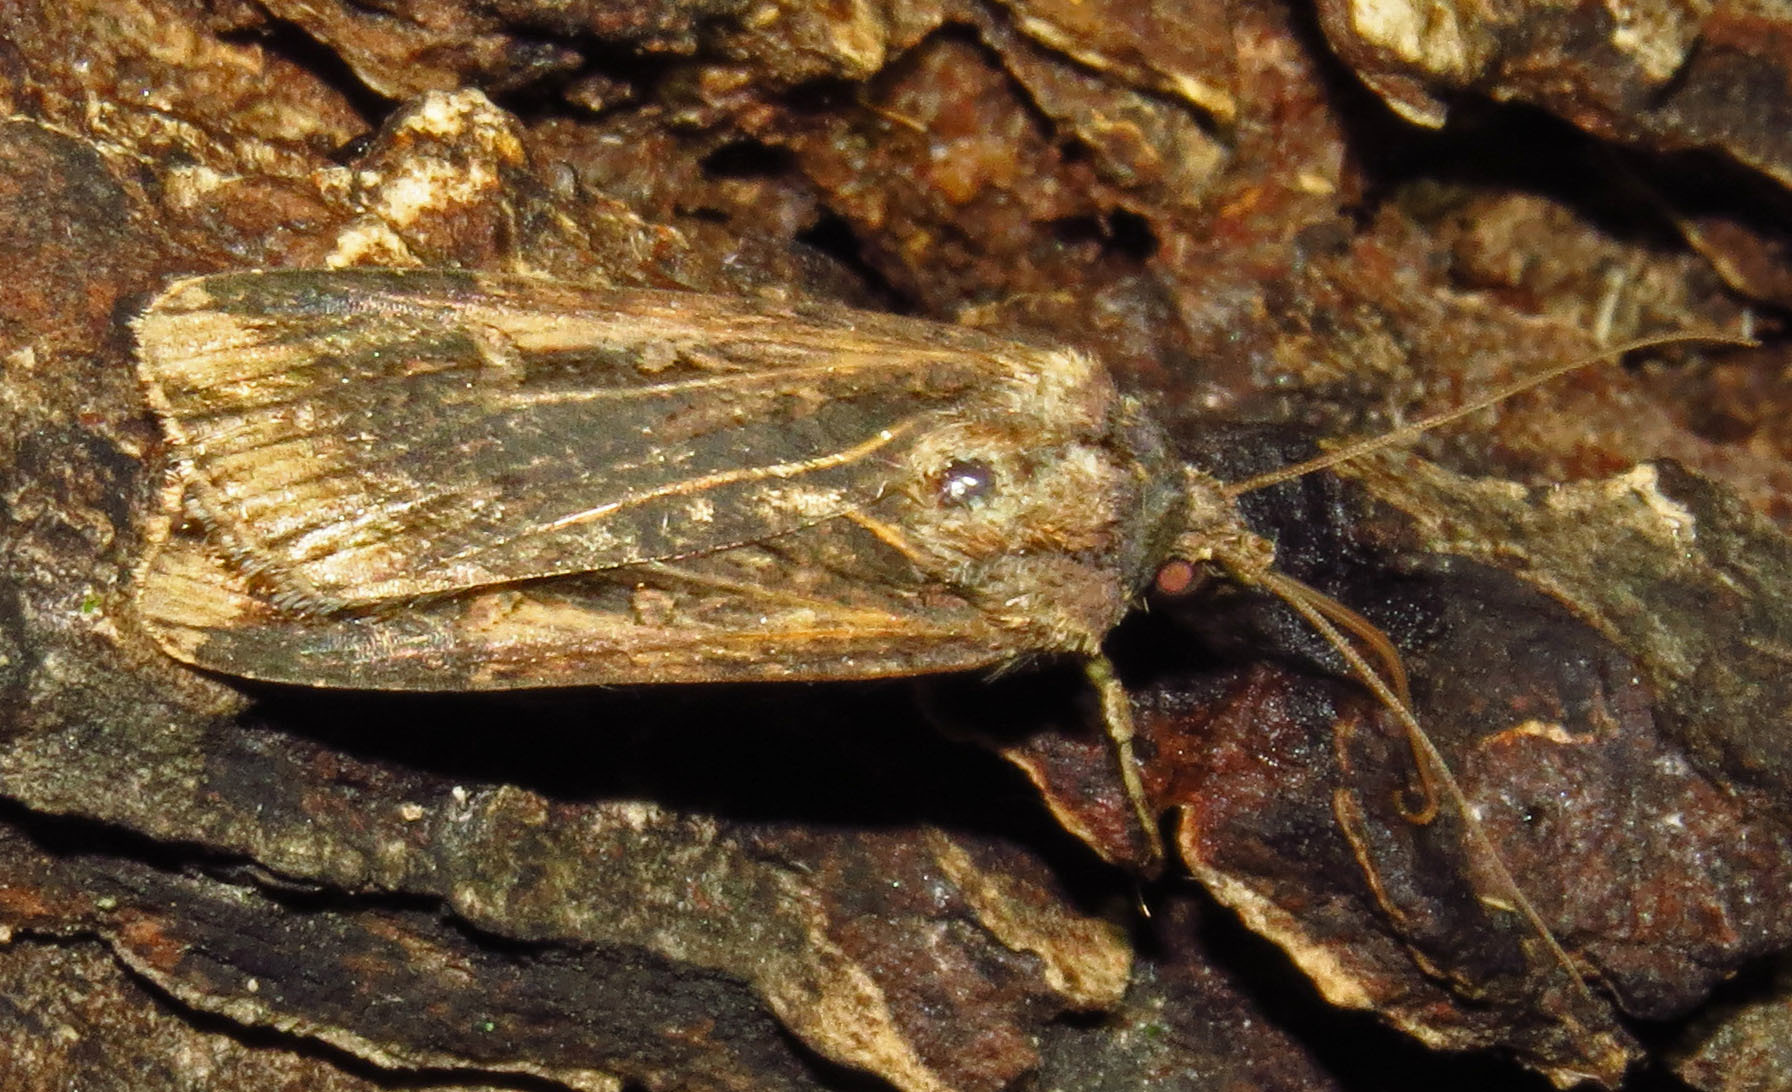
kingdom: Animalia
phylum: Arthropoda
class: Insecta
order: Lepidoptera
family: Noctuidae
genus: Feltia
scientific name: Feltia subterranea
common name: Granulate cutworm
